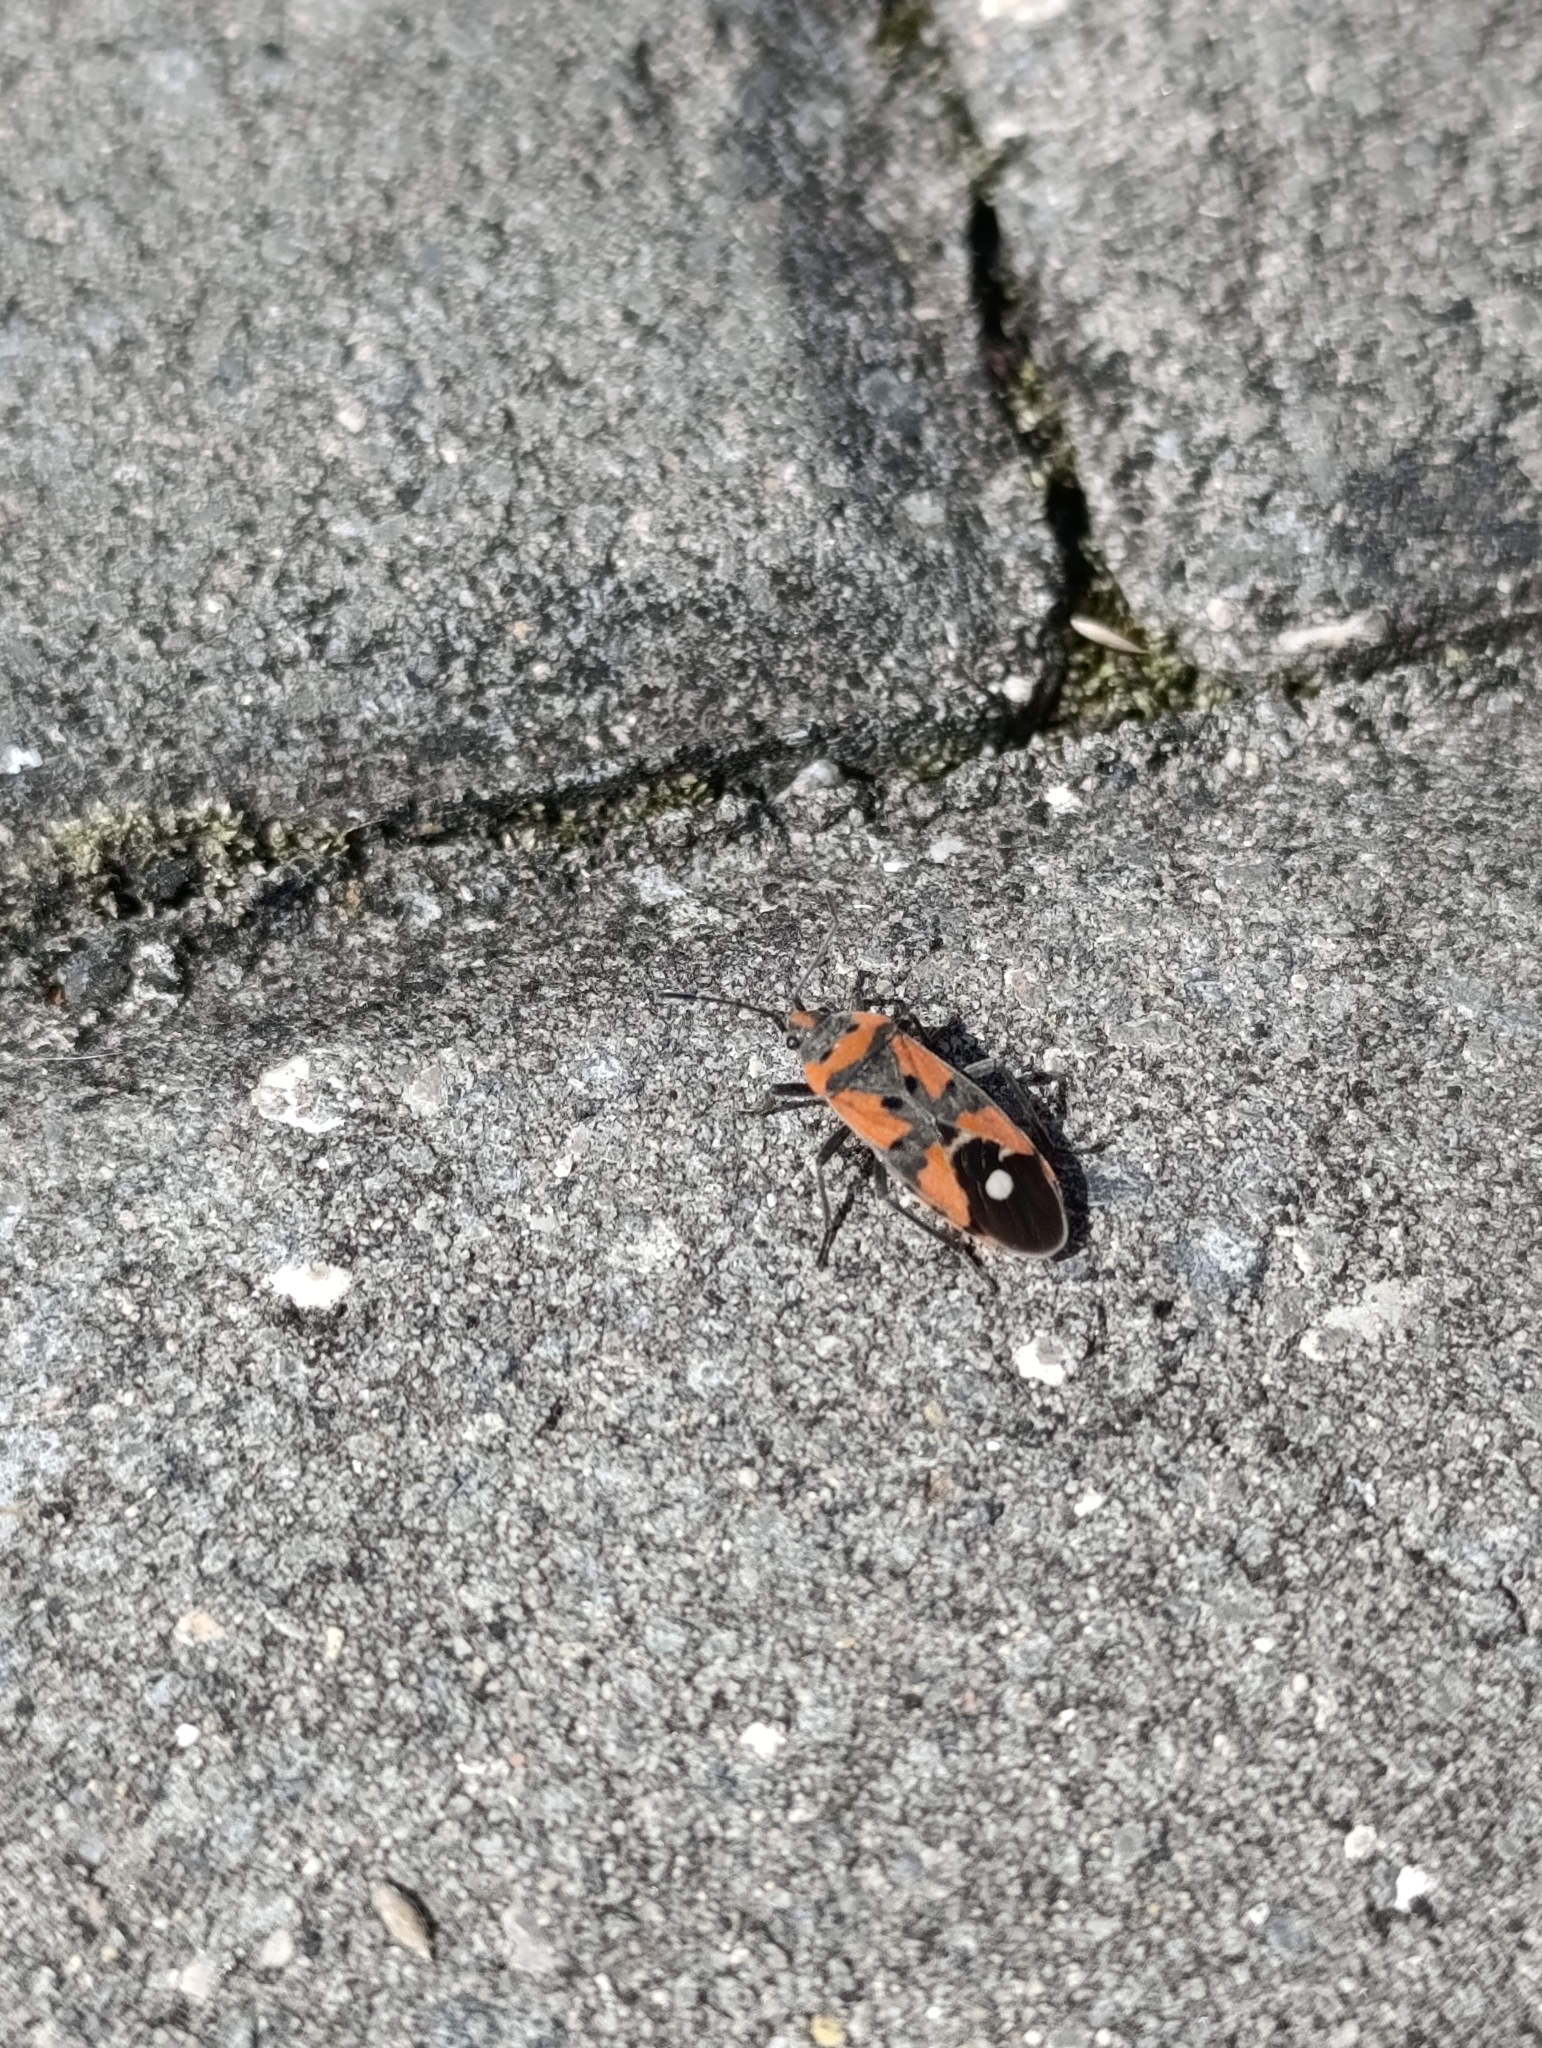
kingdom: Animalia
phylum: Arthropoda
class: Insecta
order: Hemiptera
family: Lygaeidae
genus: Lygaeus
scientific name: Lygaeus equestris
